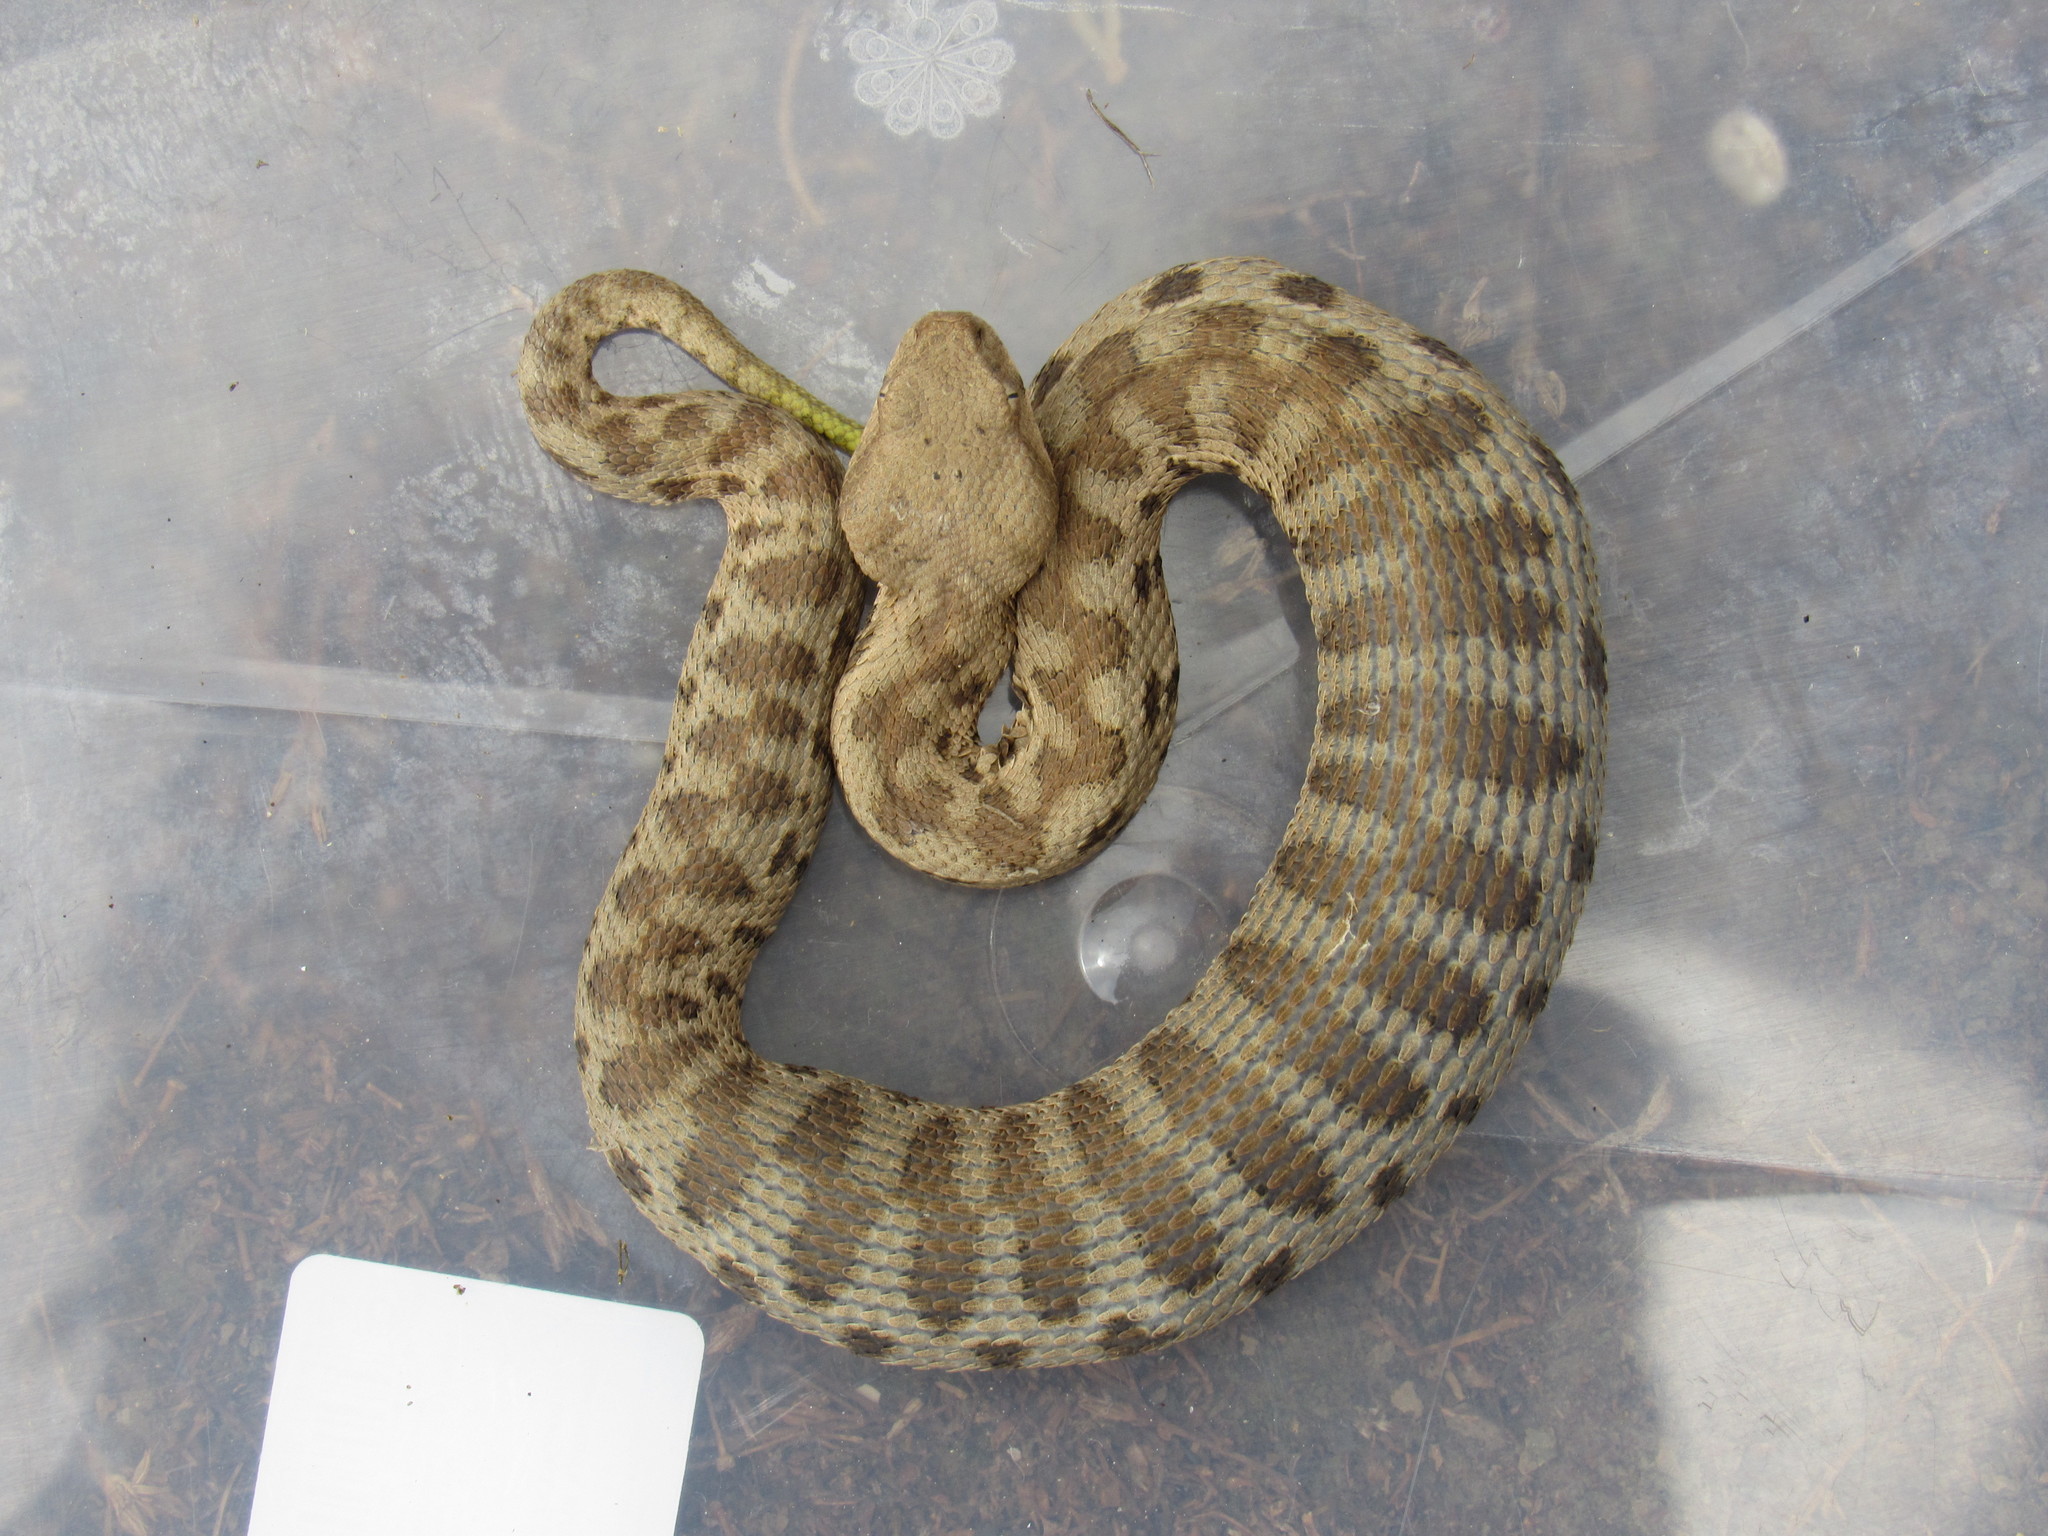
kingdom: Animalia
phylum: Chordata
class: Squamata
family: Viperidae
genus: Macrovipera
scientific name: Macrovipera lebetinus
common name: Levantine viper
